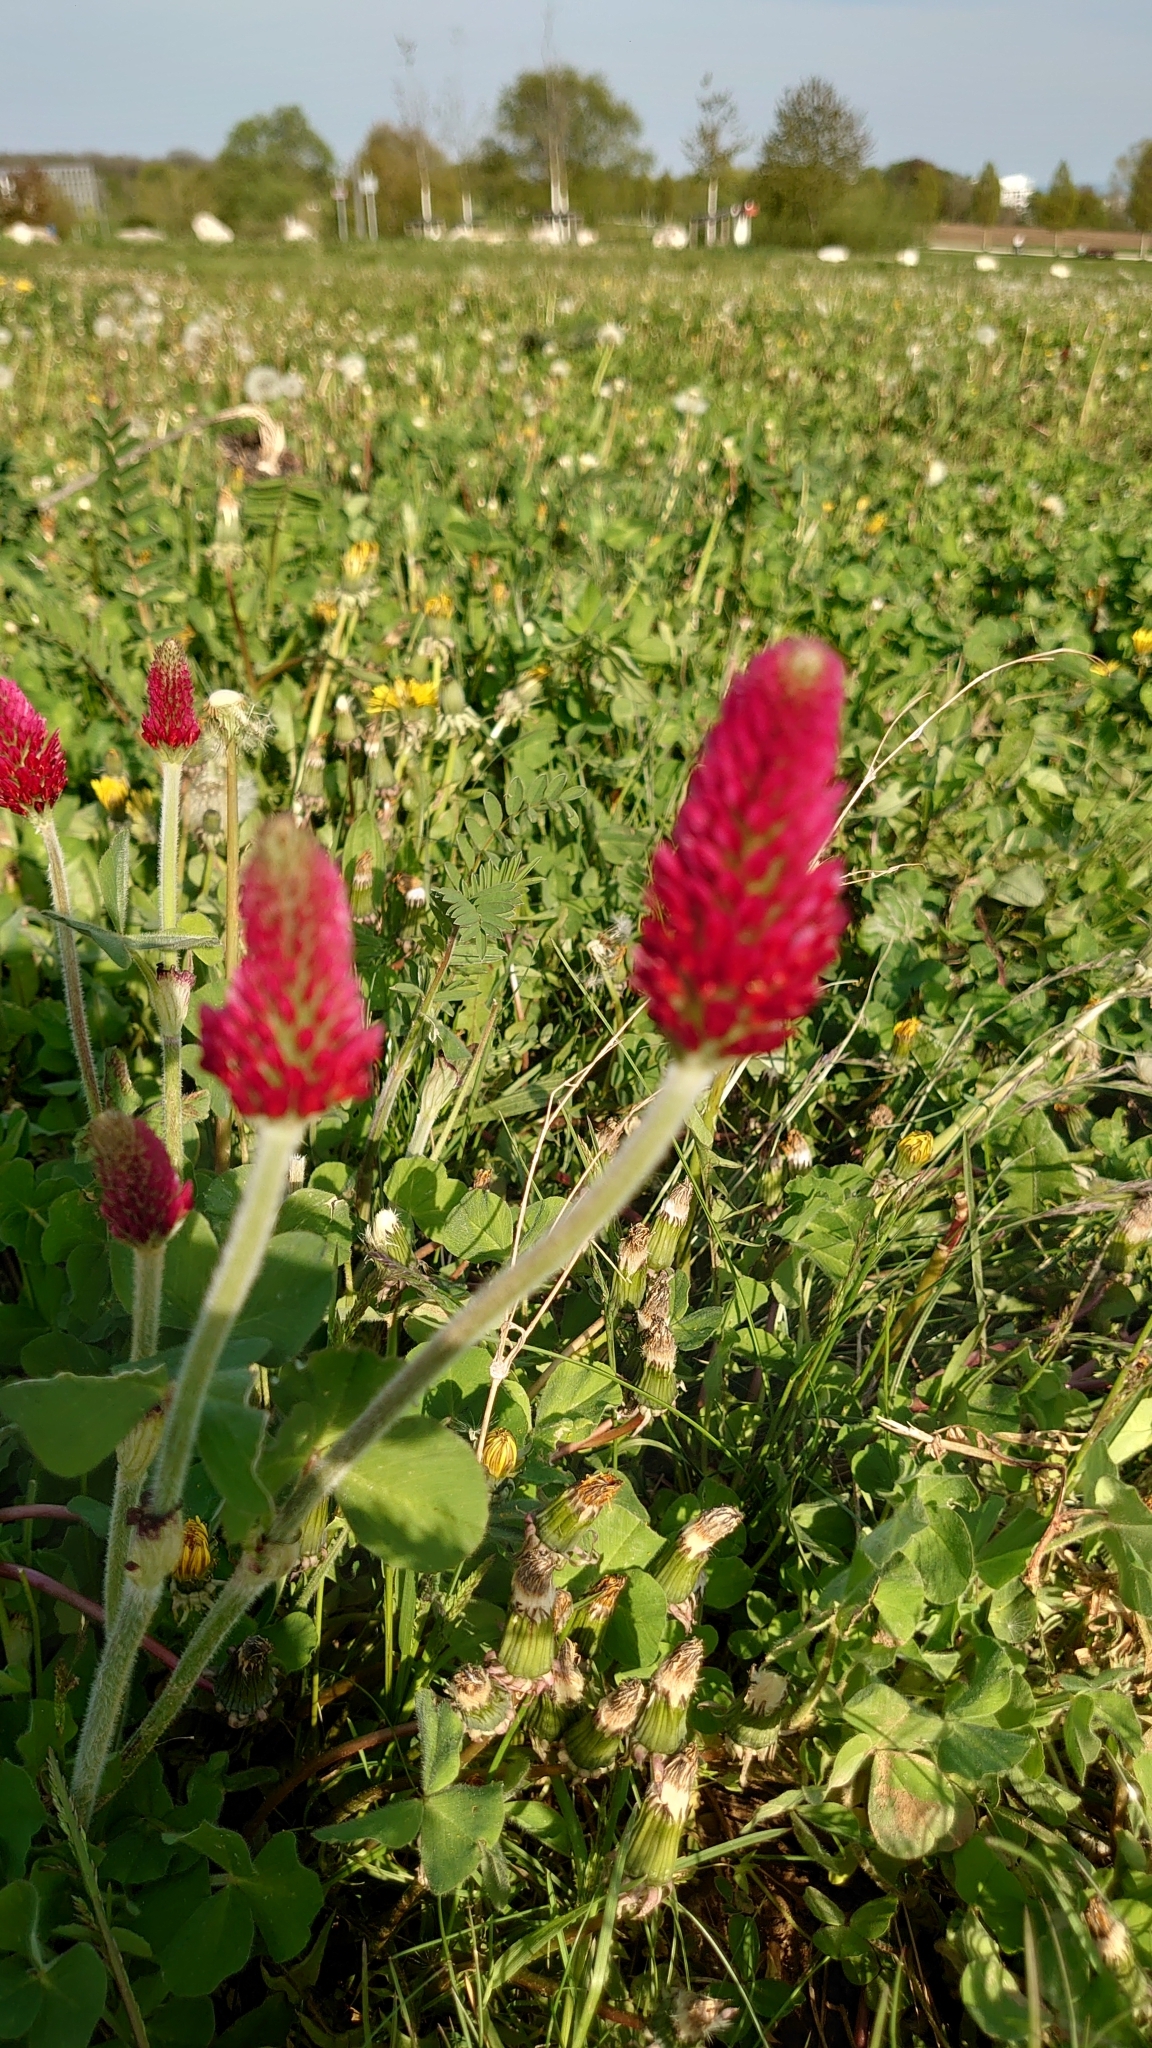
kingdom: Plantae
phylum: Tracheophyta
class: Magnoliopsida
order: Fabales
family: Fabaceae
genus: Trifolium
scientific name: Trifolium incarnatum
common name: Crimson clover
